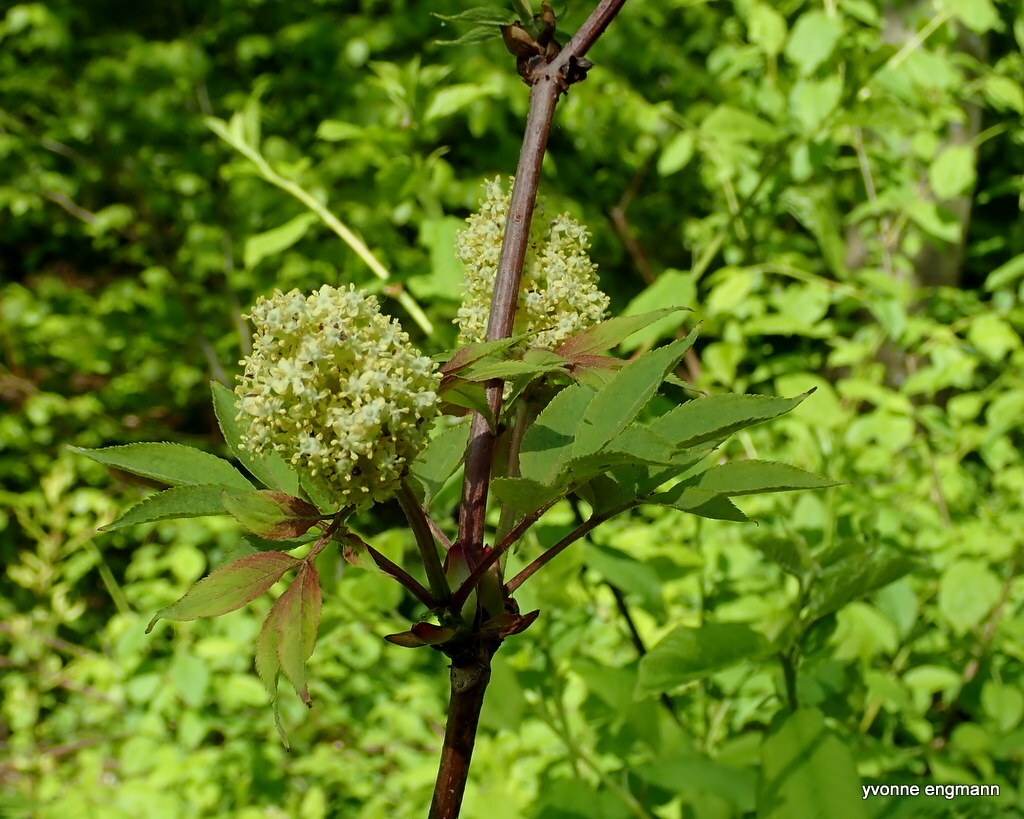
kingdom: Plantae
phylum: Tracheophyta
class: Magnoliopsida
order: Dipsacales
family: Viburnaceae
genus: Sambucus
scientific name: Sambucus racemosa
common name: Red-berried elder
